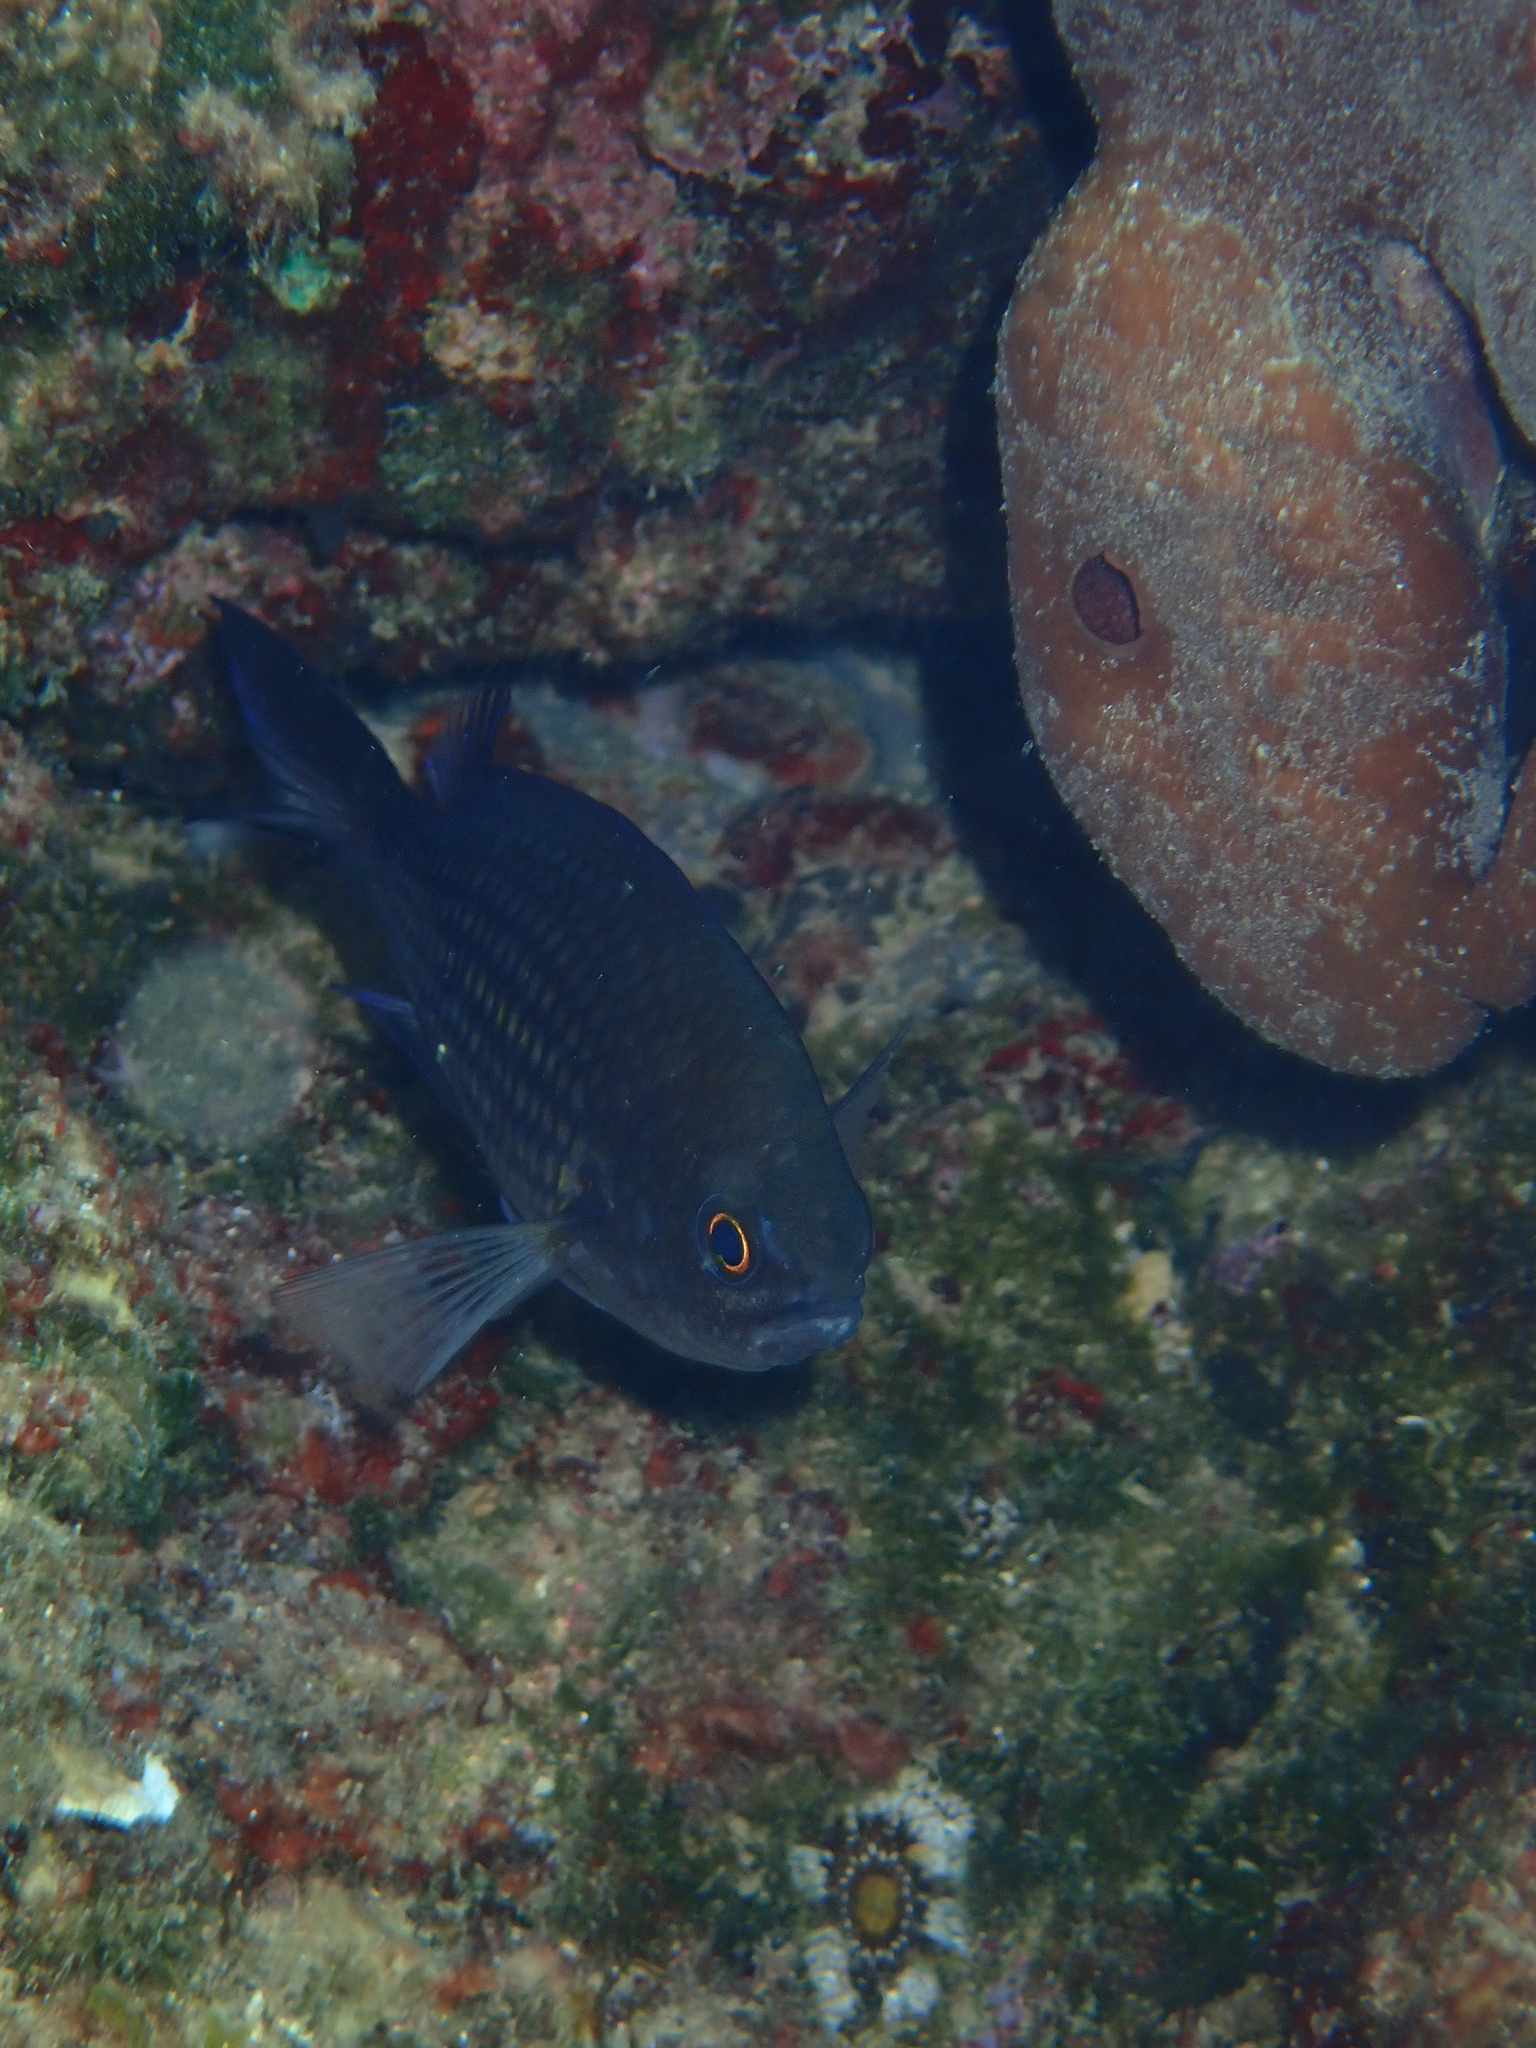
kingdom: Animalia
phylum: Chordata
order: Perciformes
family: Pomacentridae
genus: Chromis
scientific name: Chromis chromis
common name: Damselfish
